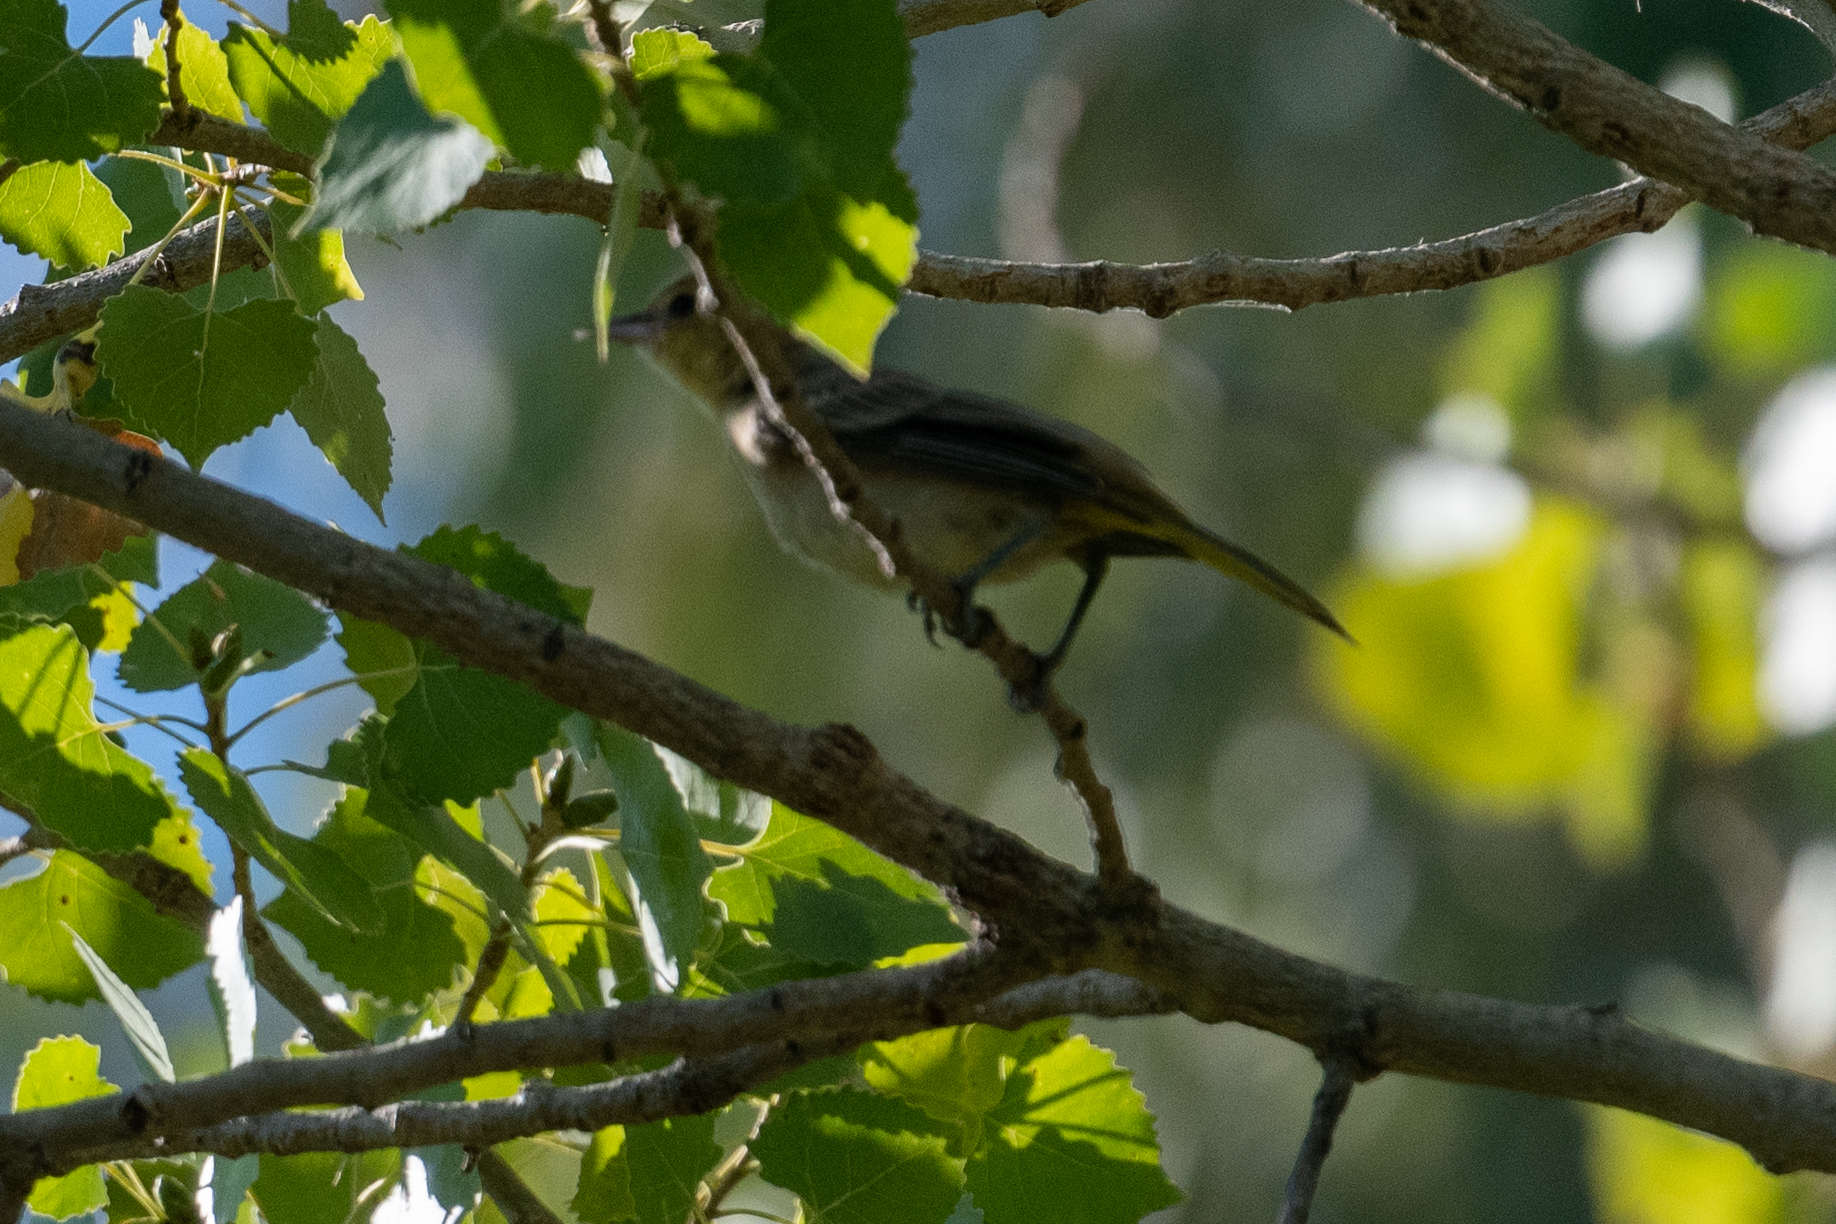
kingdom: Animalia
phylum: Chordata
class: Aves
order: Passeriformes
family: Icteridae
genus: Icterus
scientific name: Icterus bullockii
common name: Bullock's oriole
